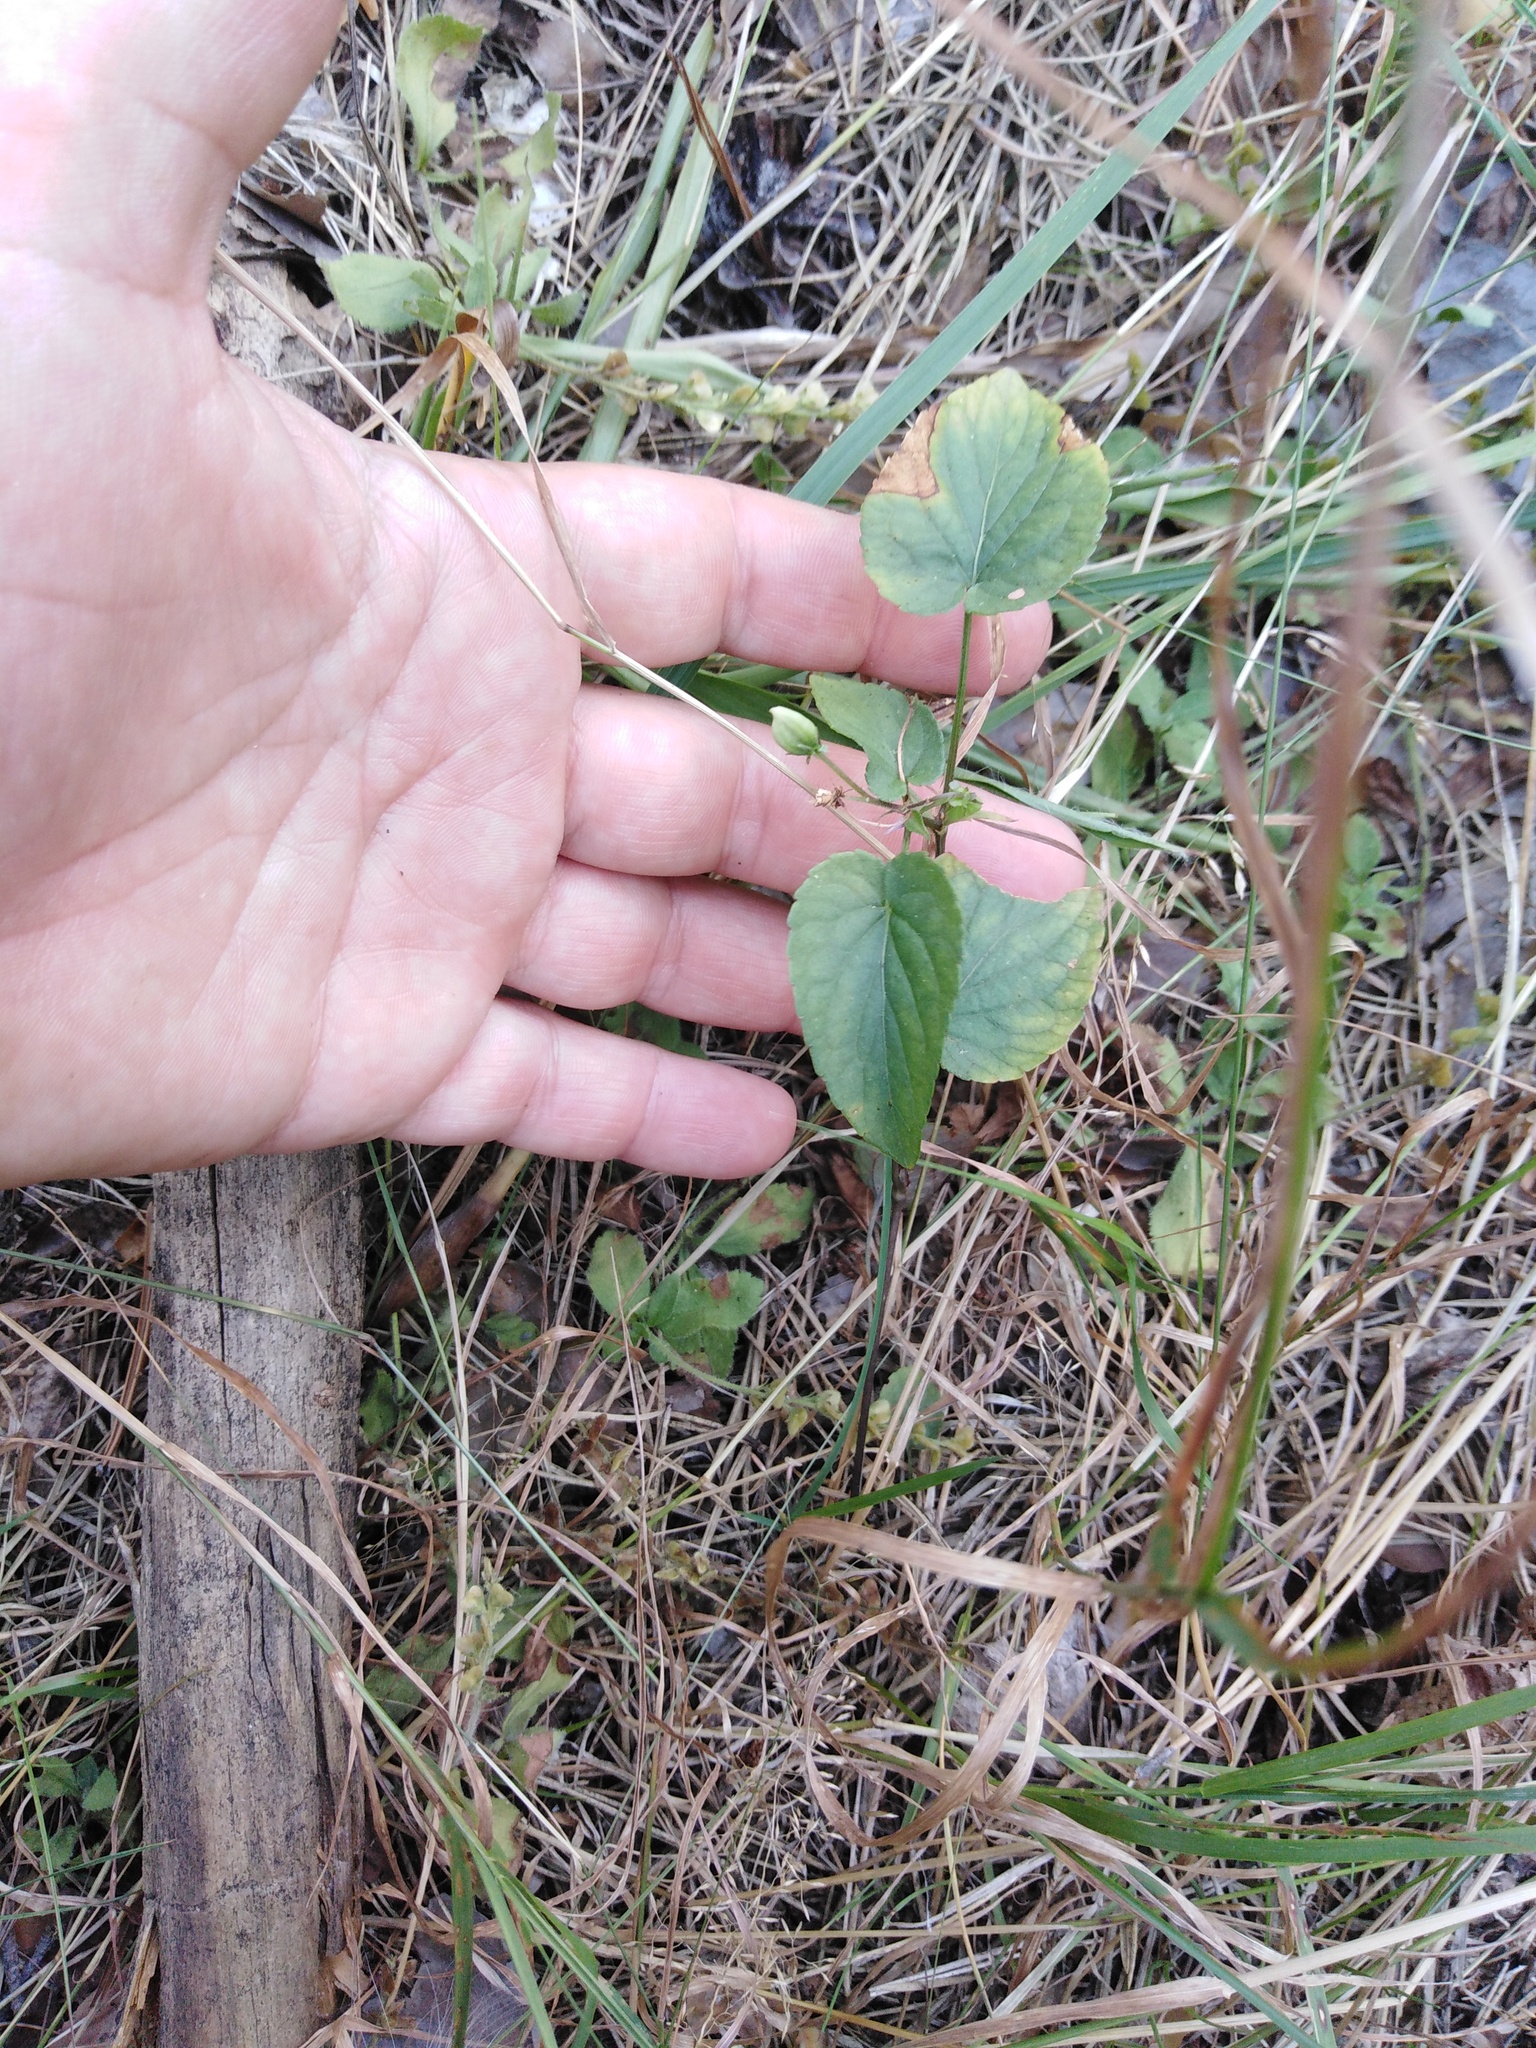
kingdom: Plantae
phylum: Tracheophyta
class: Magnoliopsida
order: Malpighiales
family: Violaceae
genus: Viola
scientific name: Viola
